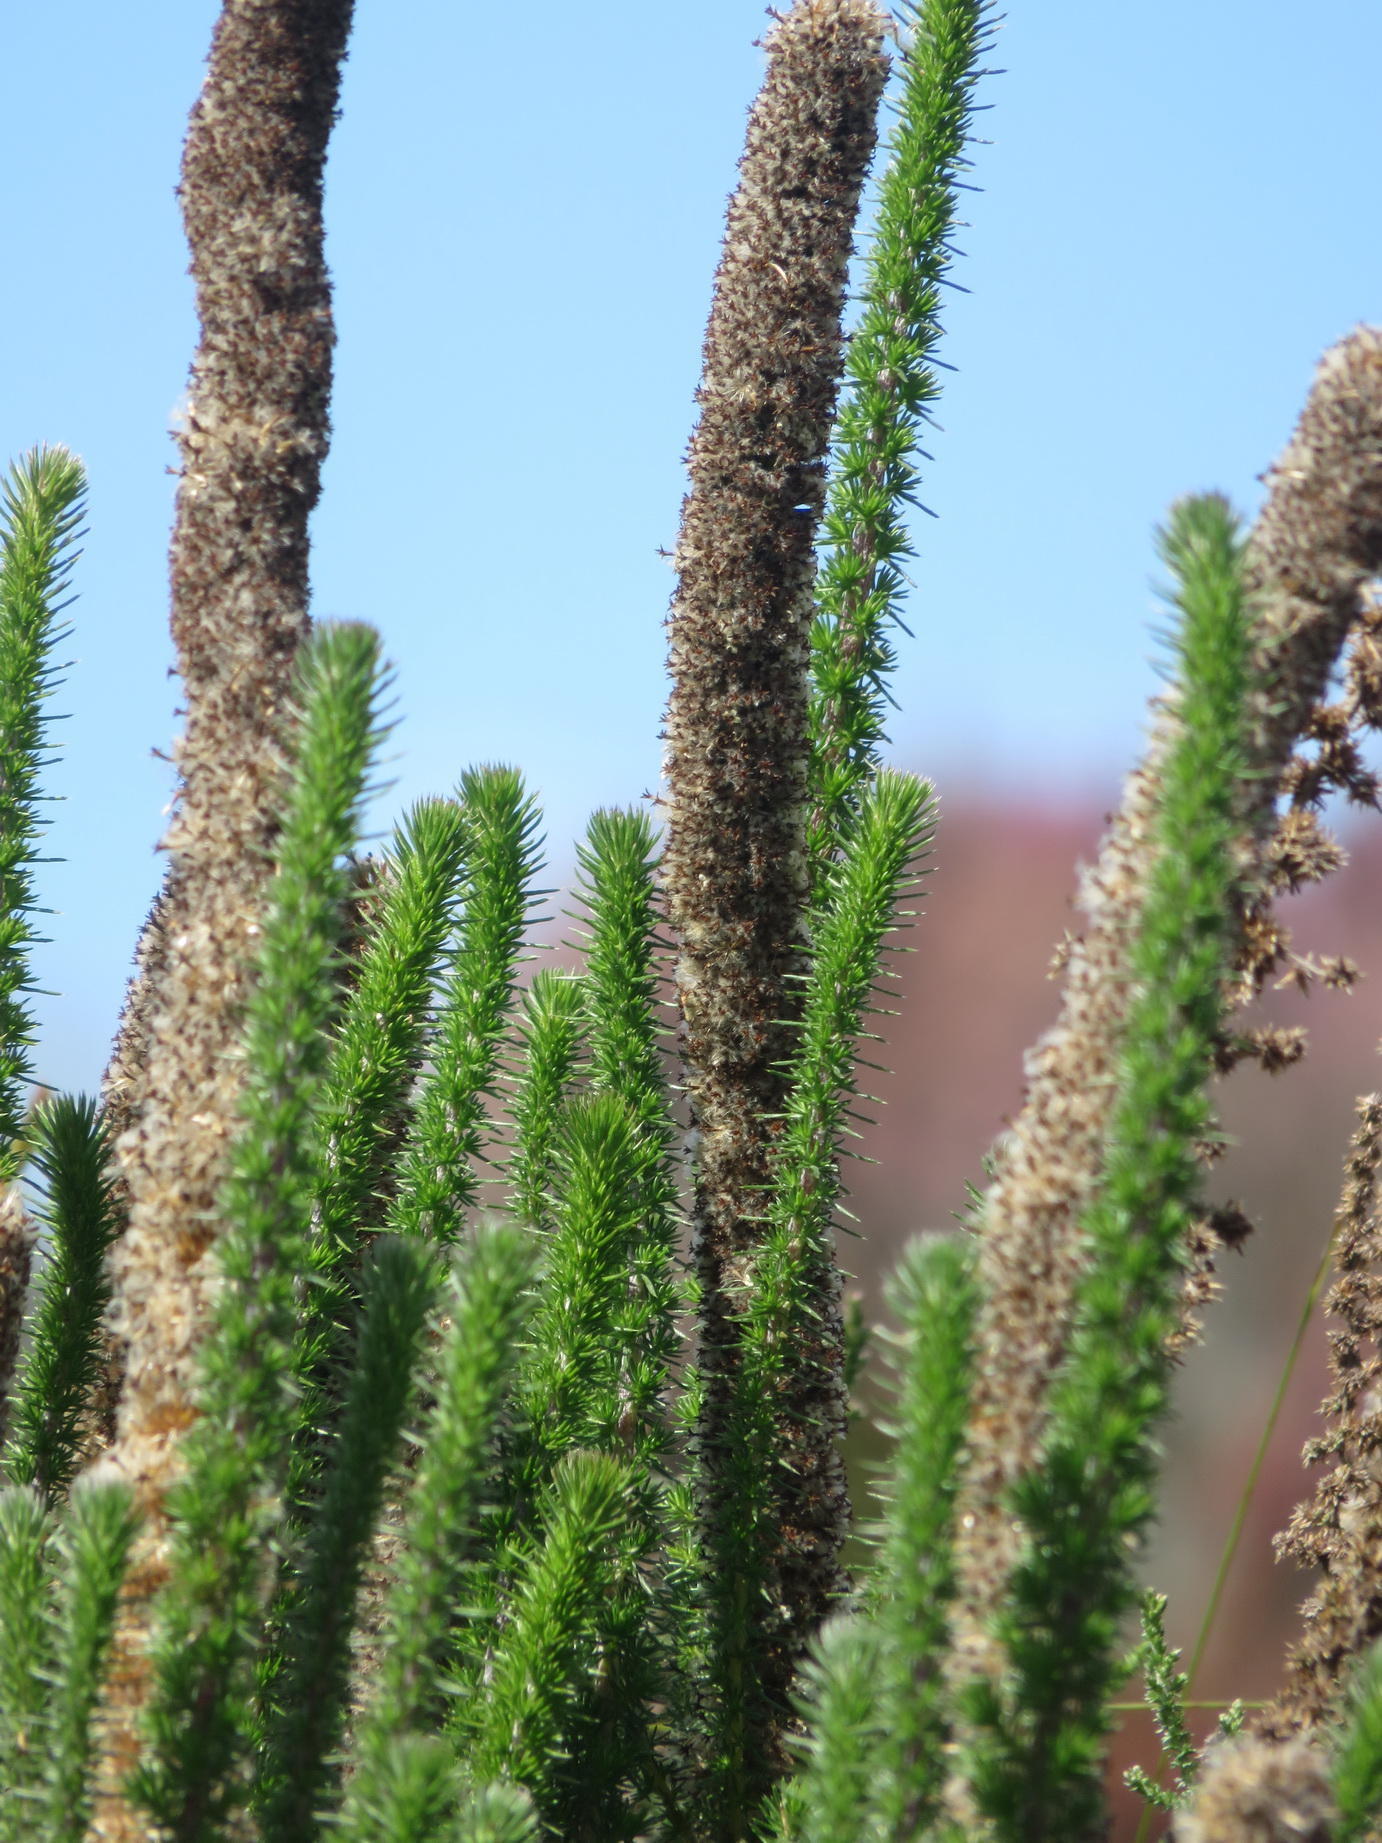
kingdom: Plantae
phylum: Tracheophyta
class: Magnoliopsida
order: Asterales
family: Asteraceae
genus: Stoebe
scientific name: Stoebe alopecuroides
